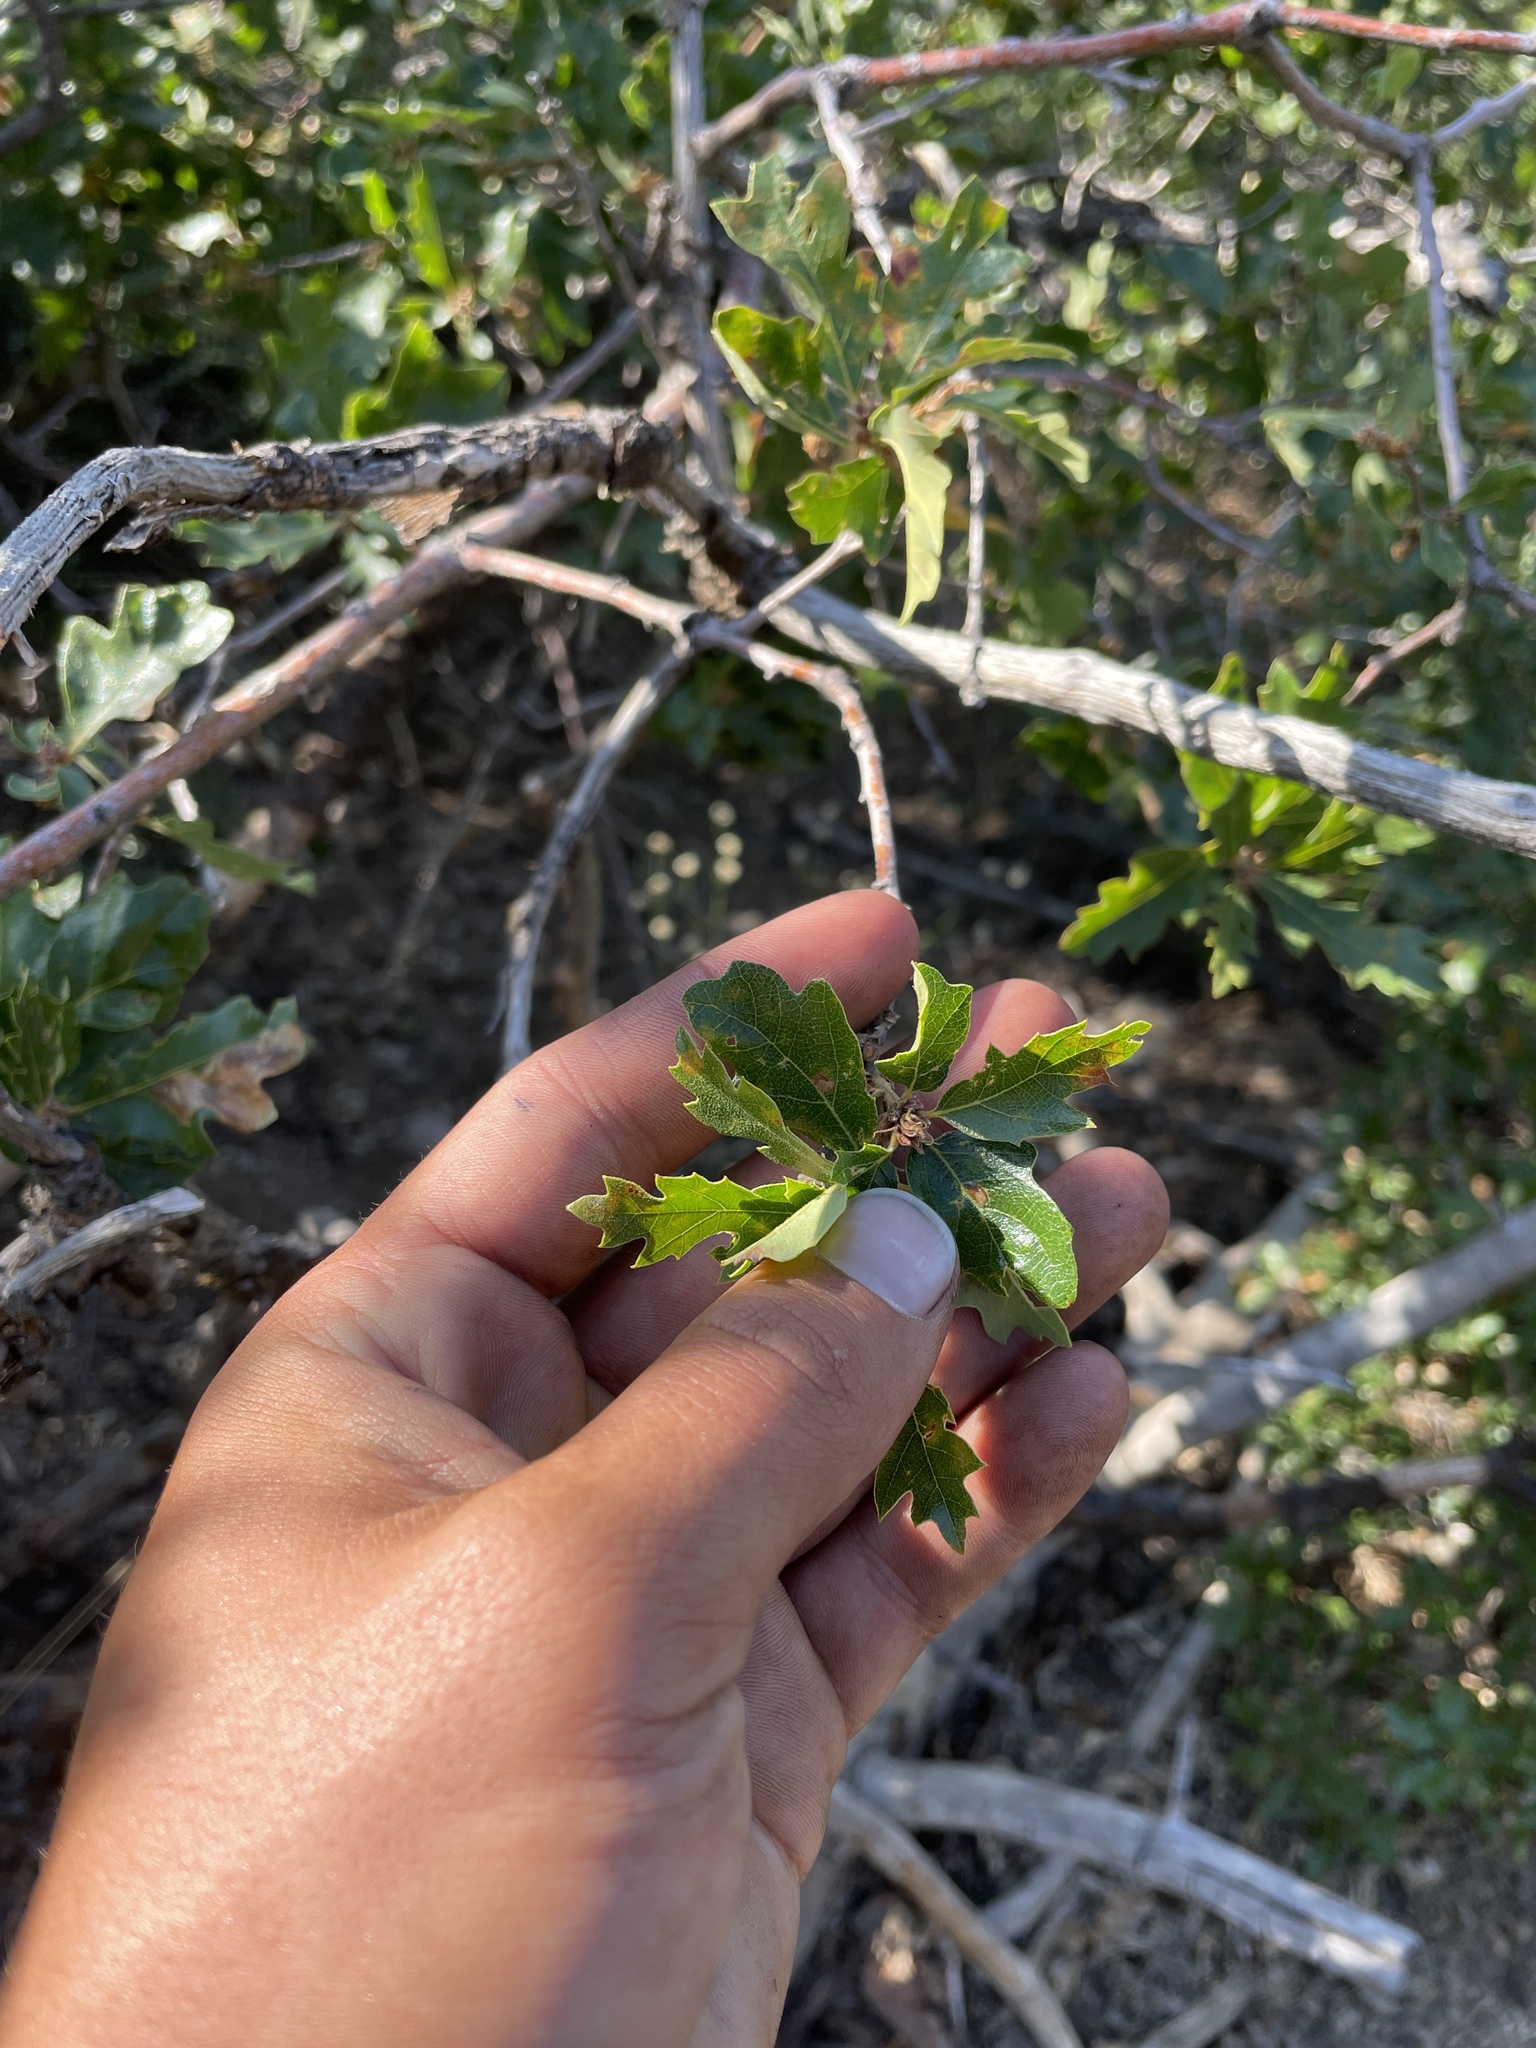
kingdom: Plantae
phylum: Tracheophyta
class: Magnoliopsida
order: Fagales
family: Fagaceae
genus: Quercus
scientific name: Quercus garryana
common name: Garry oak
